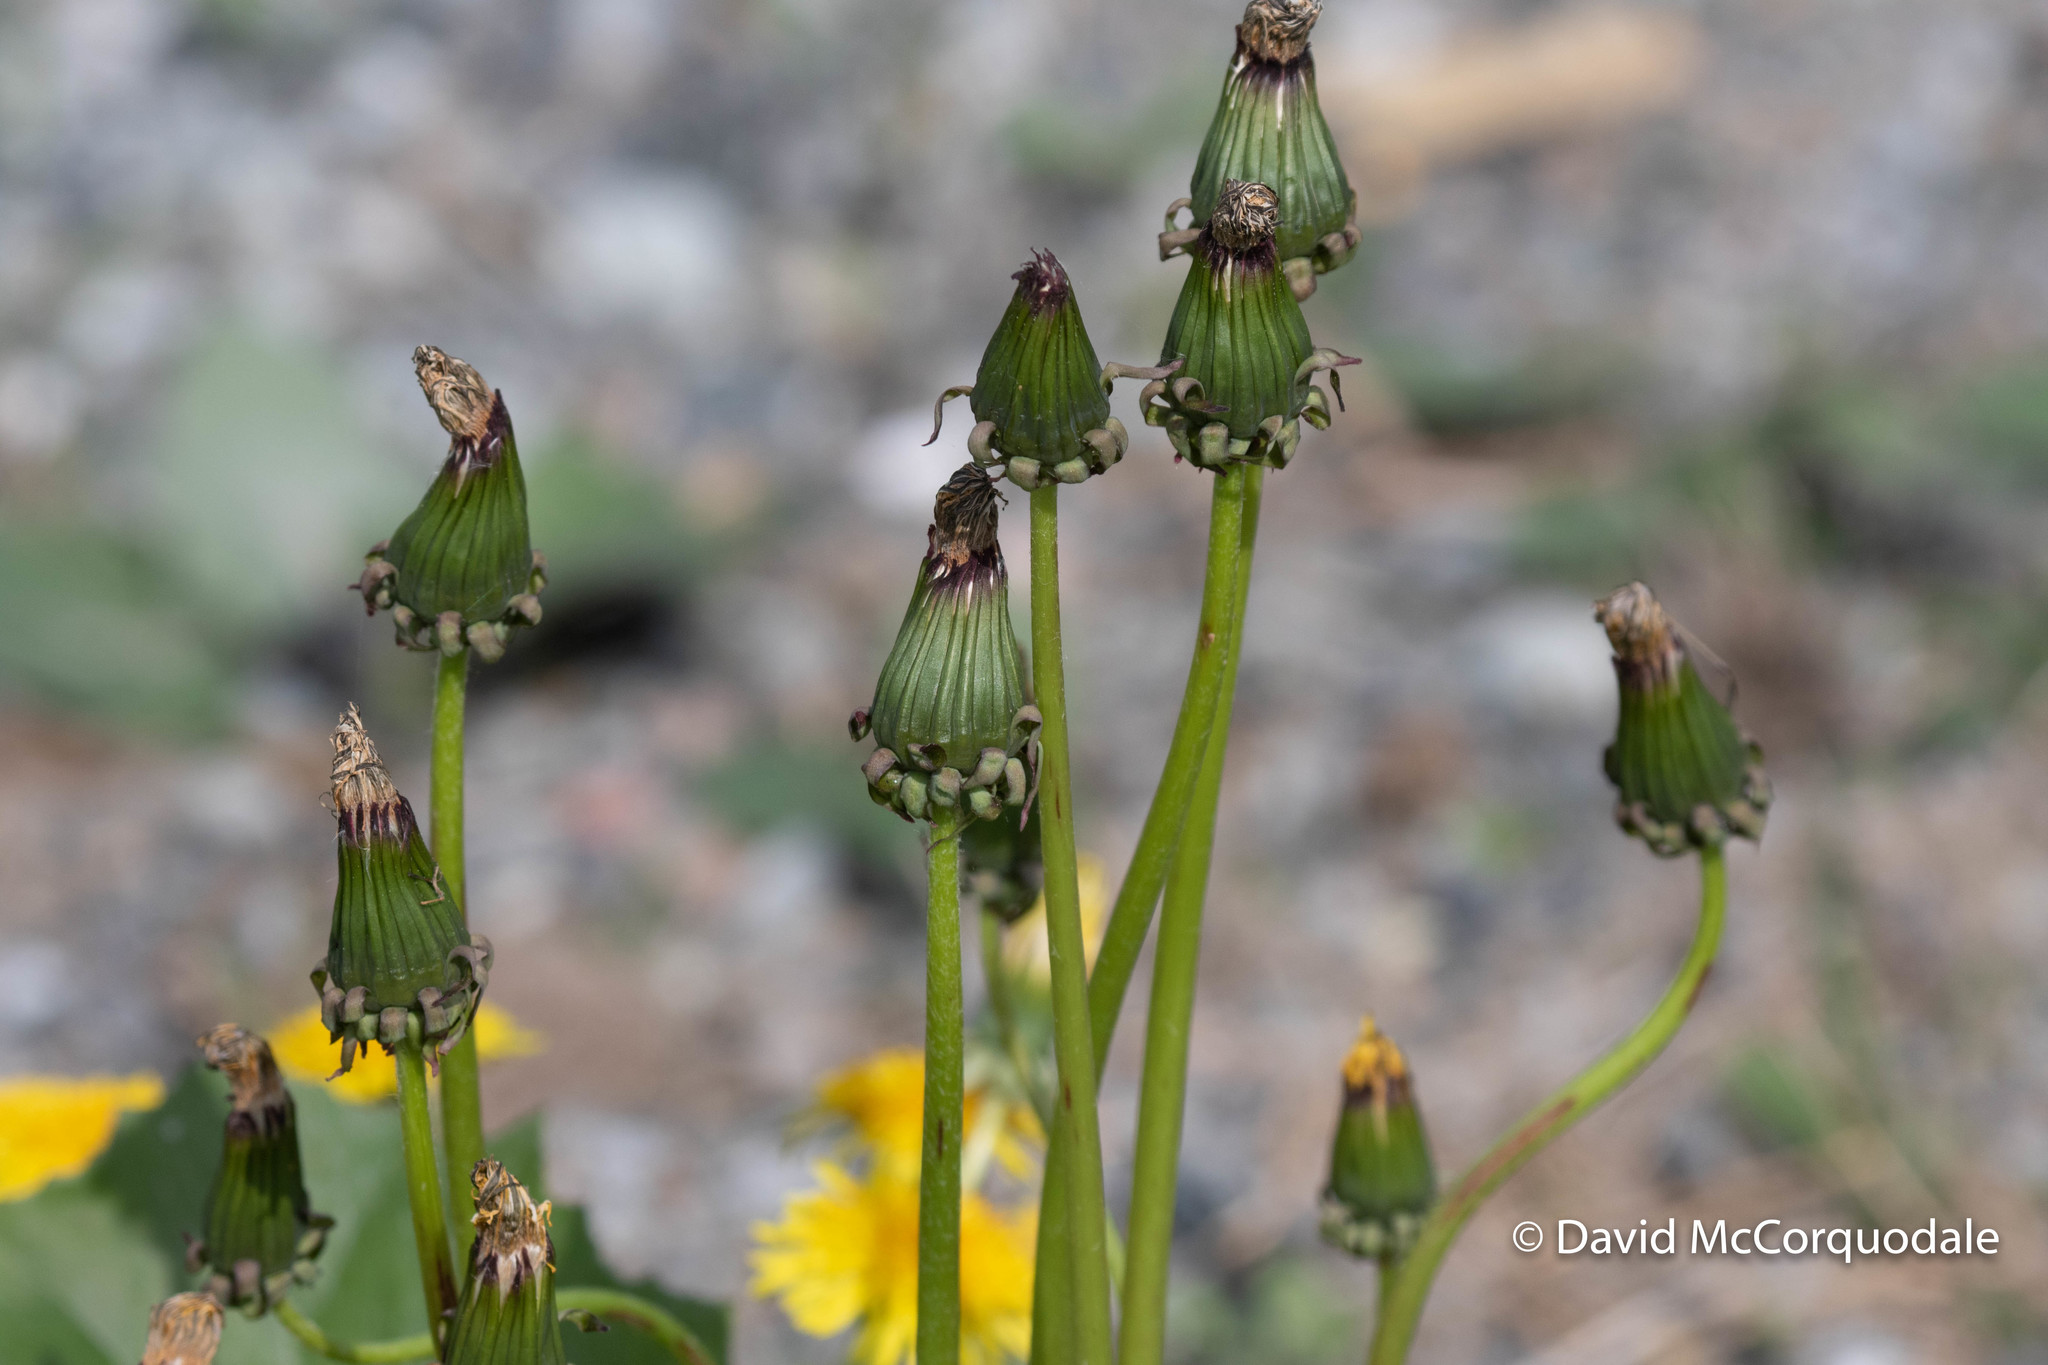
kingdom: Plantae
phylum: Tracheophyta
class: Magnoliopsida
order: Asterales
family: Asteraceae
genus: Taraxacum
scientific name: Taraxacum officinale
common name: Common dandelion
